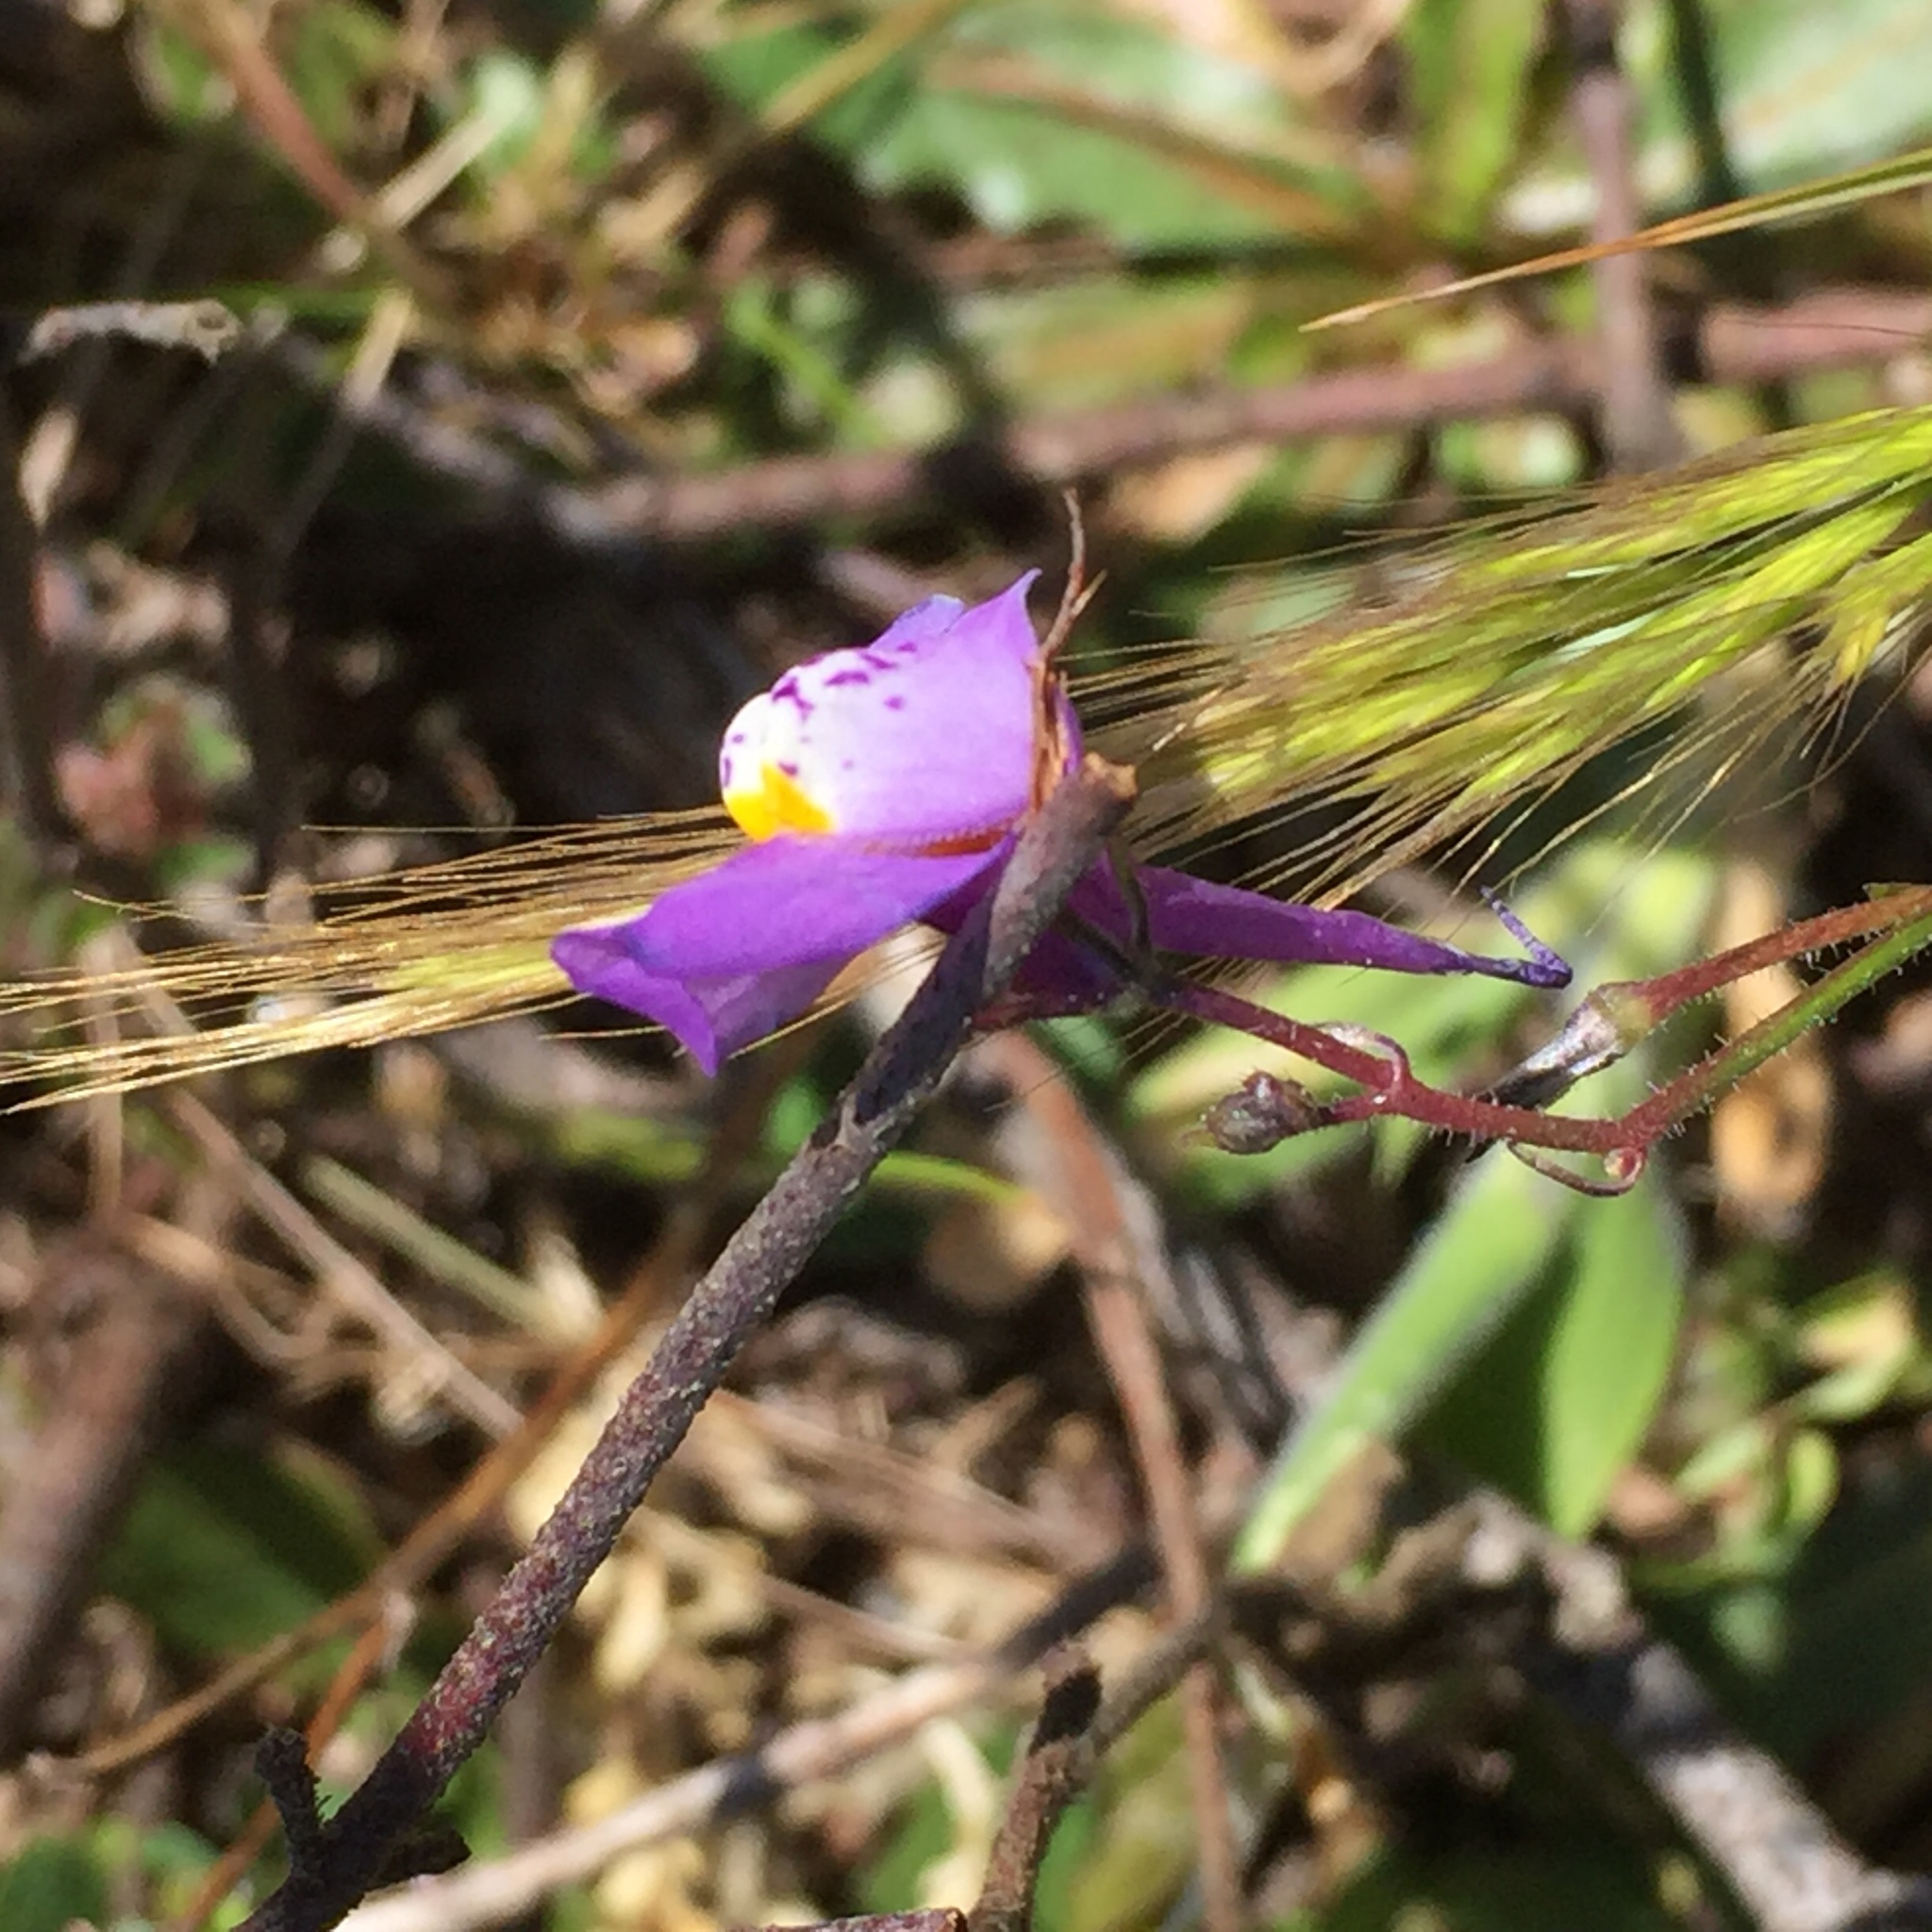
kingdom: Plantae
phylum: Tracheophyta
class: Magnoliopsida
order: Lamiales
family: Plantaginaceae
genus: Linaria
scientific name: Linaria algarviana
